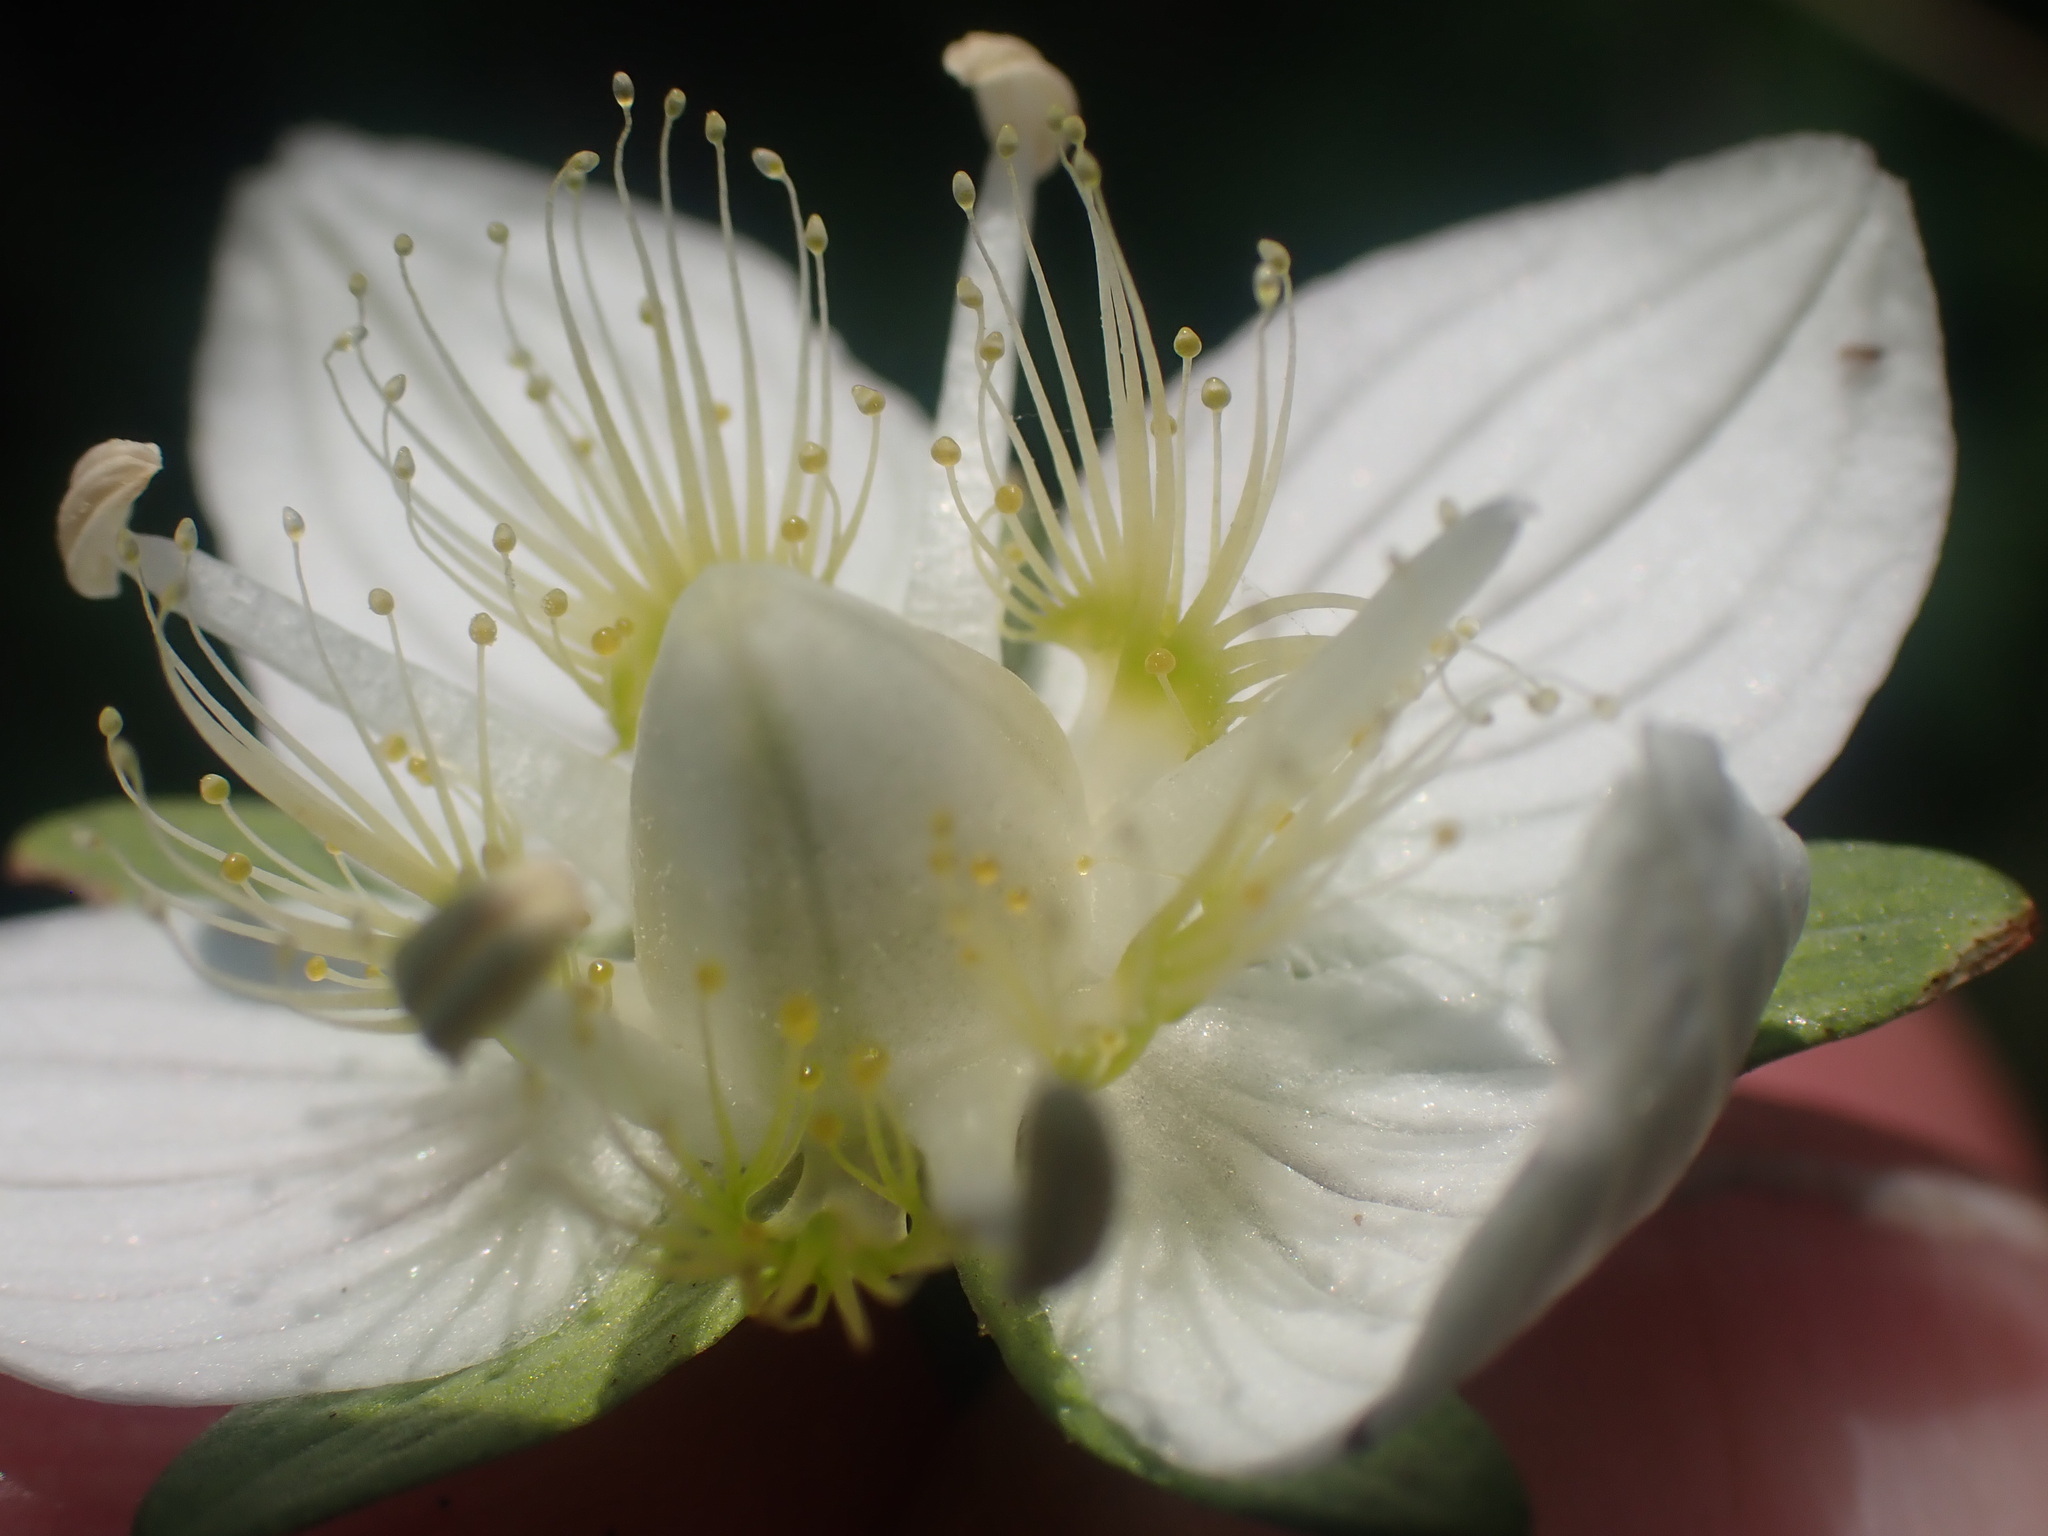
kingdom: Plantae
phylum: Tracheophyta
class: Magnoliopsida
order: Celastrales
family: Parnassiaceae
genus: Parnassia
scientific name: Parnassia palustris
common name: Grass-of-parnassus
